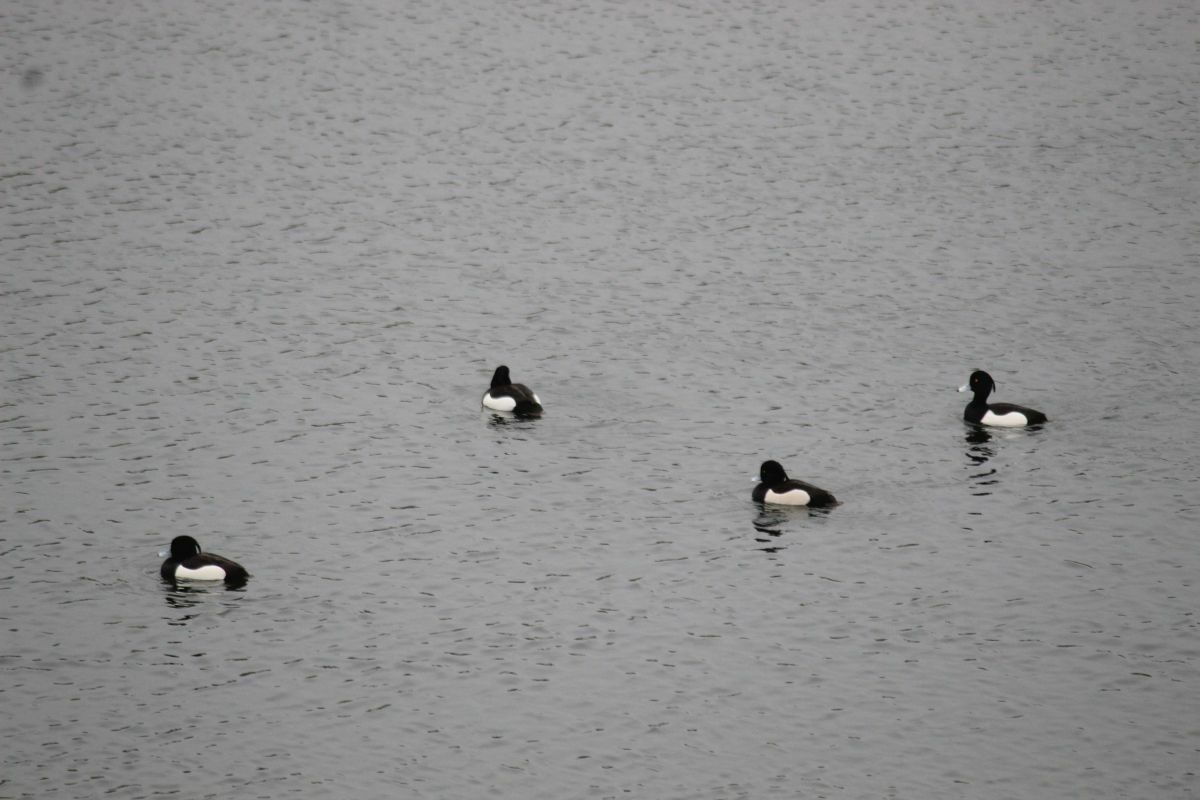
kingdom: Animalia
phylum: Chordata
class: Aves
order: Anseriformes
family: Anatidae
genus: Aythya
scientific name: Aythya fuligula
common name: Tufted duck
